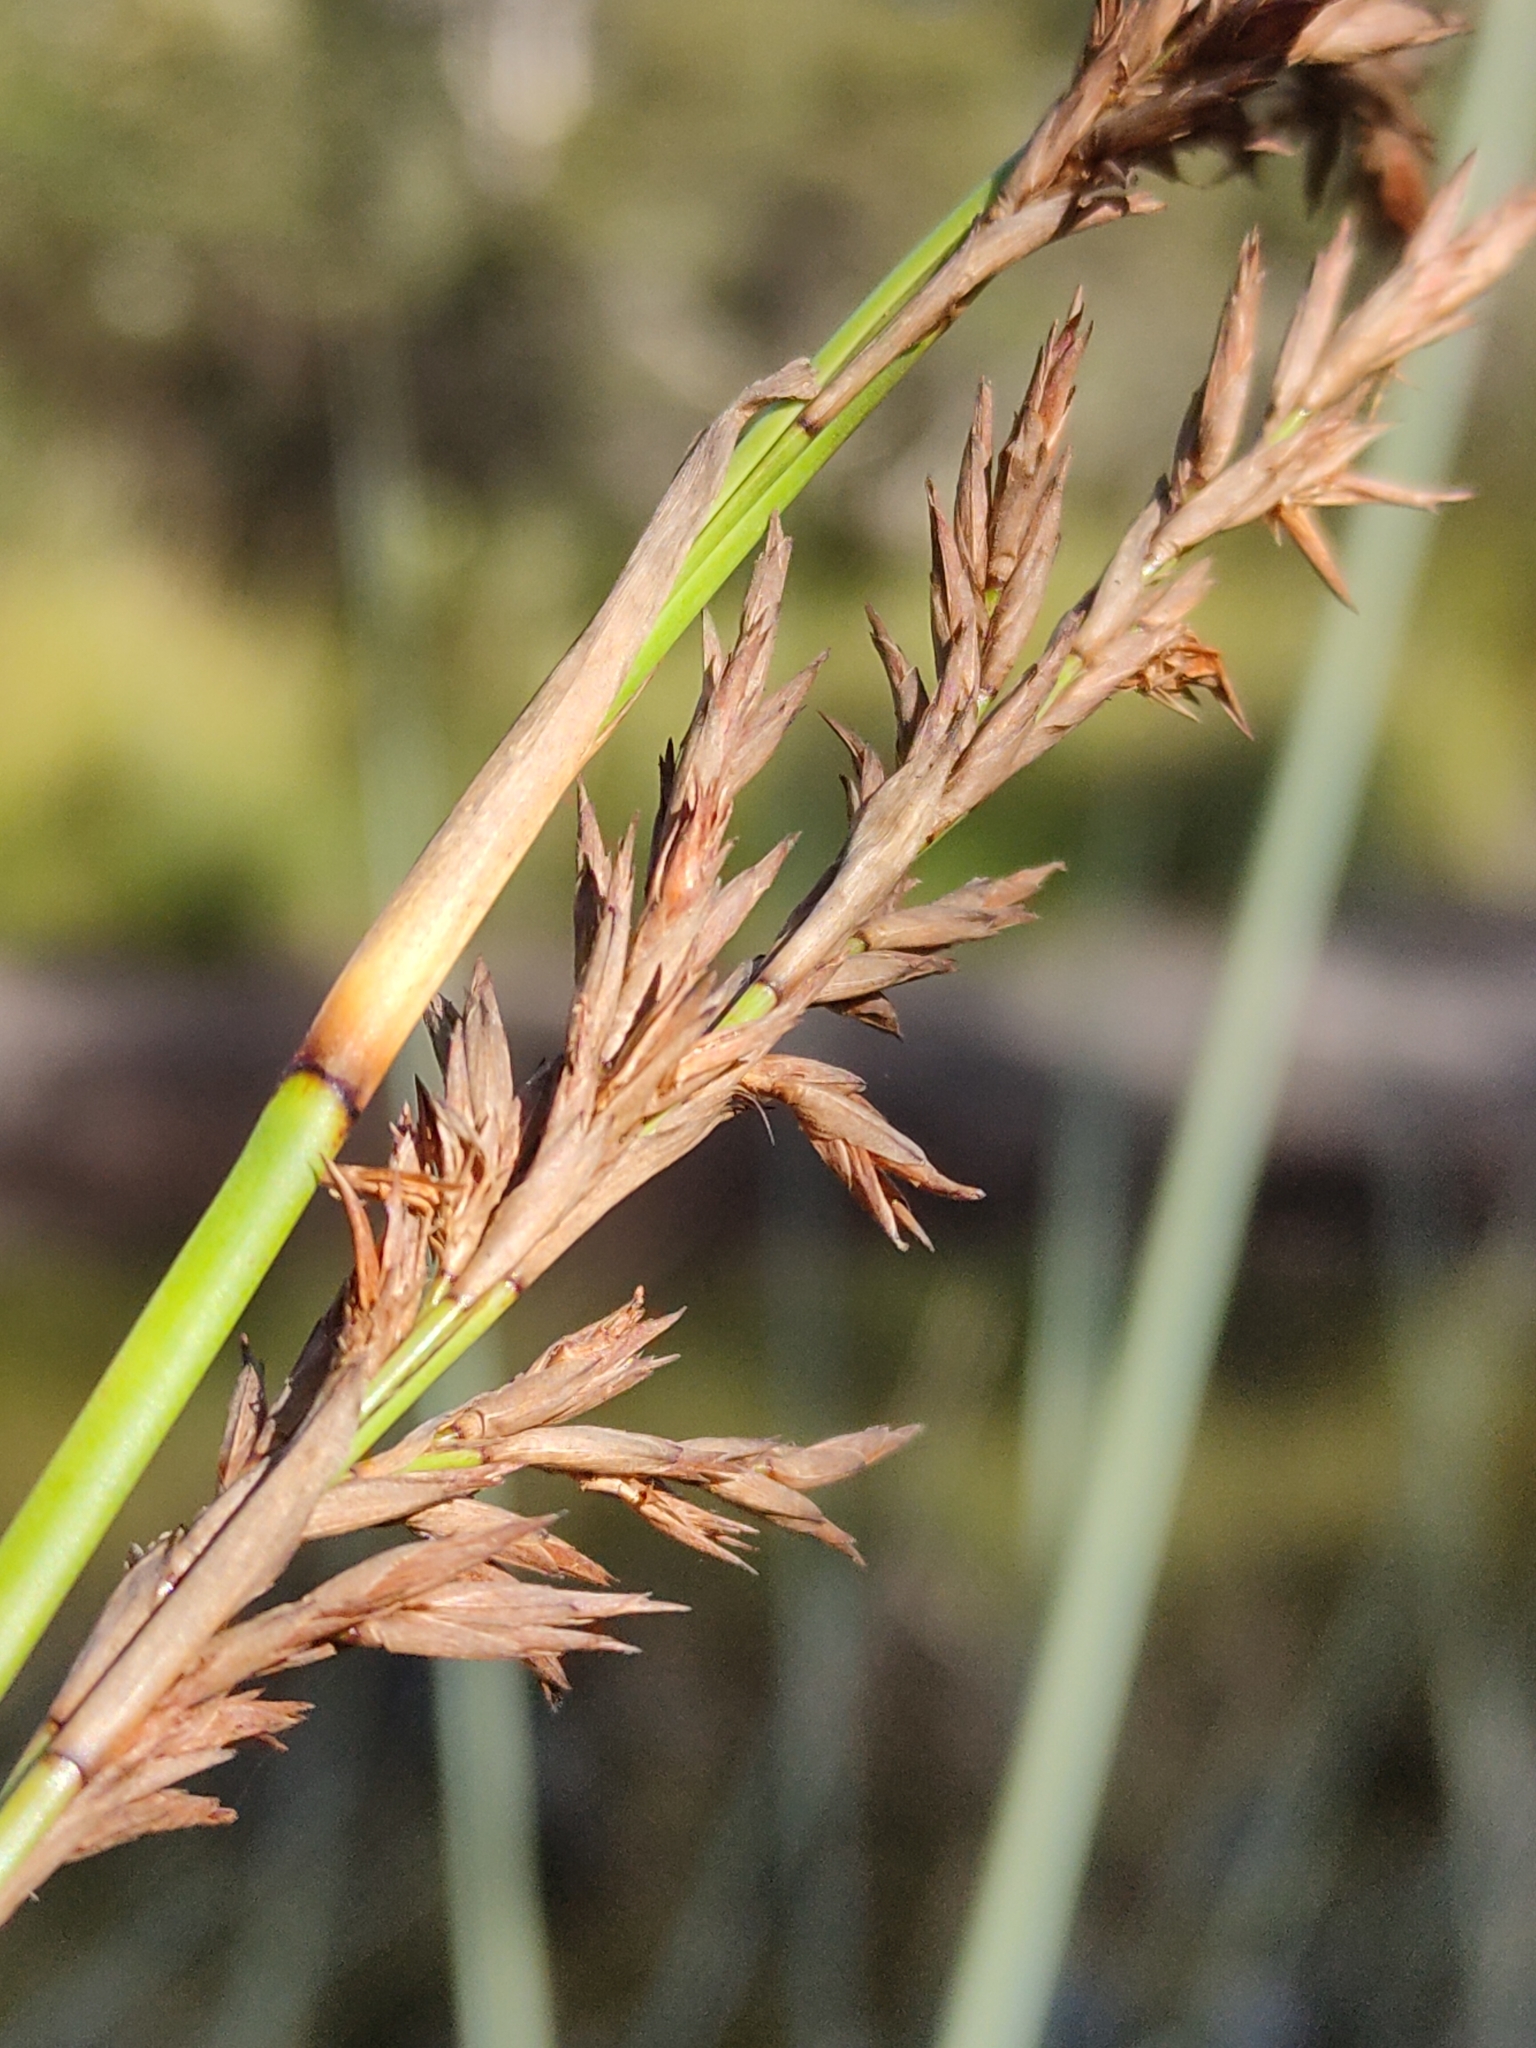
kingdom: Plantae
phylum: Tracheophyta
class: Liliopsida
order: Poales
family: Cyperaceae
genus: Lepidosperma
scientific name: Lepidosperma longitudinale
